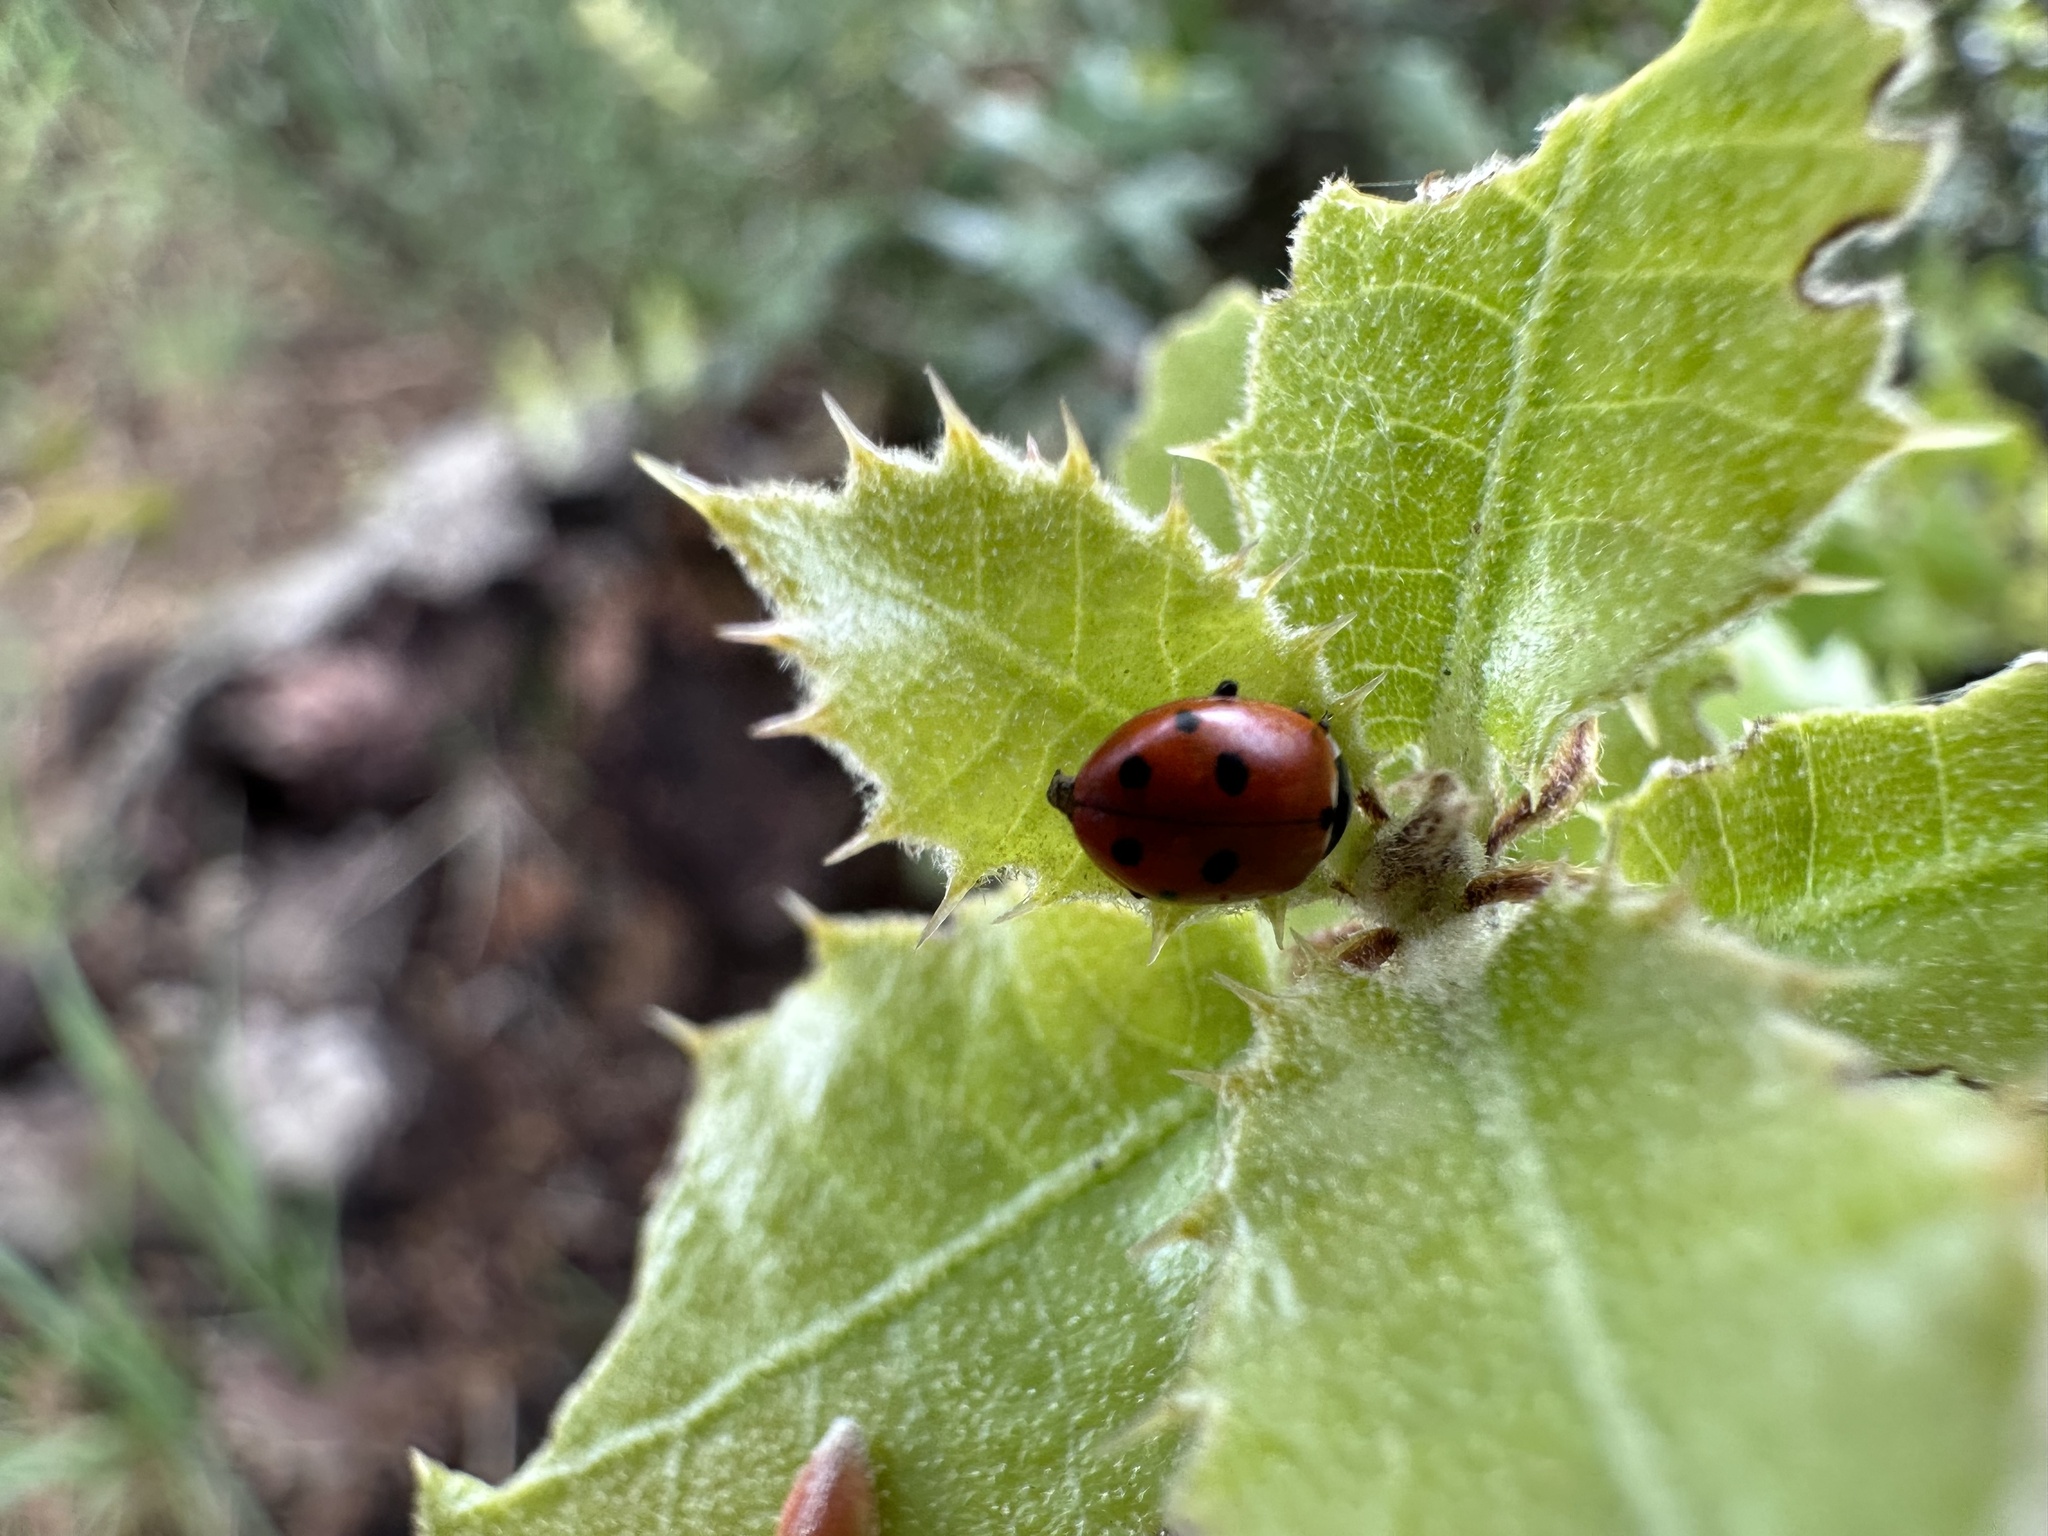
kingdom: Animalia
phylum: Arthropoda
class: Insecta
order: Coleoptera
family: Coccinellidae
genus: Hippodamia
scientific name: Hippodamia variegata
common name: Ladybird beetle
